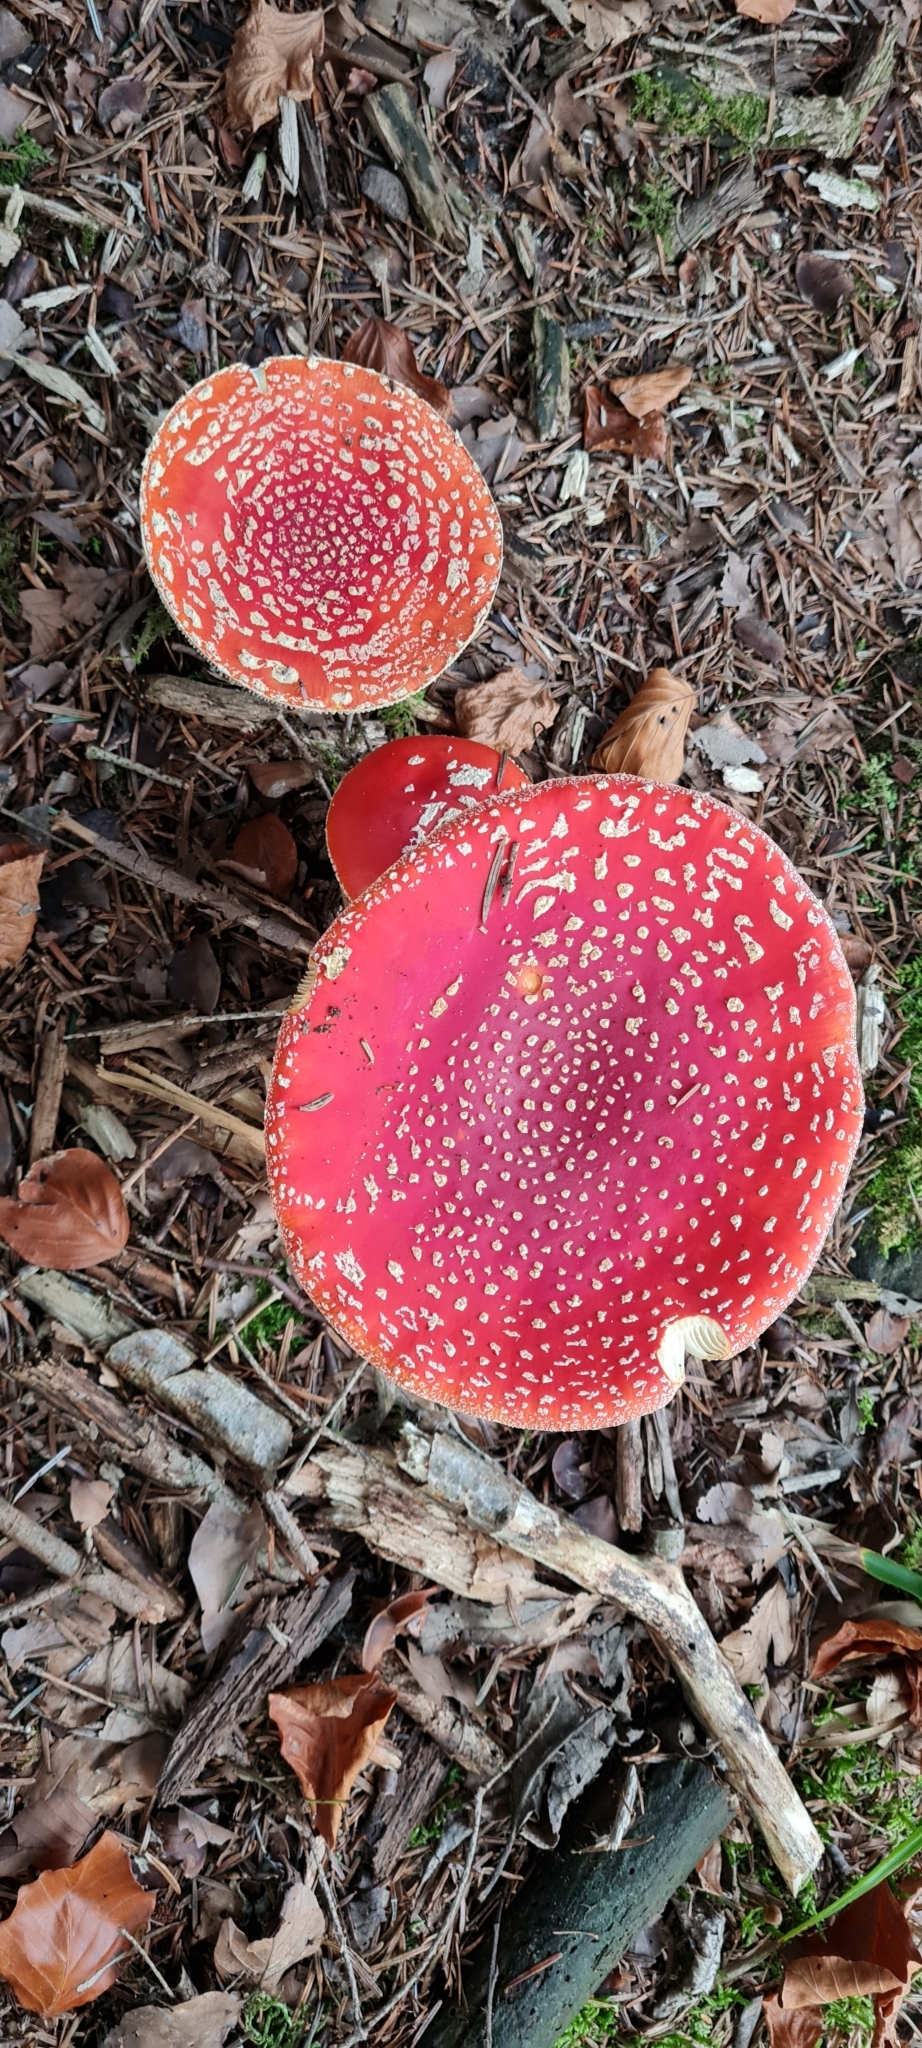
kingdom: Fungi
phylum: Basidiomycota
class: Agaricomycetes
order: Agaricales
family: Amanitaceae
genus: Amanita
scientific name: Amanita muscaria
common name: Fly agaric
